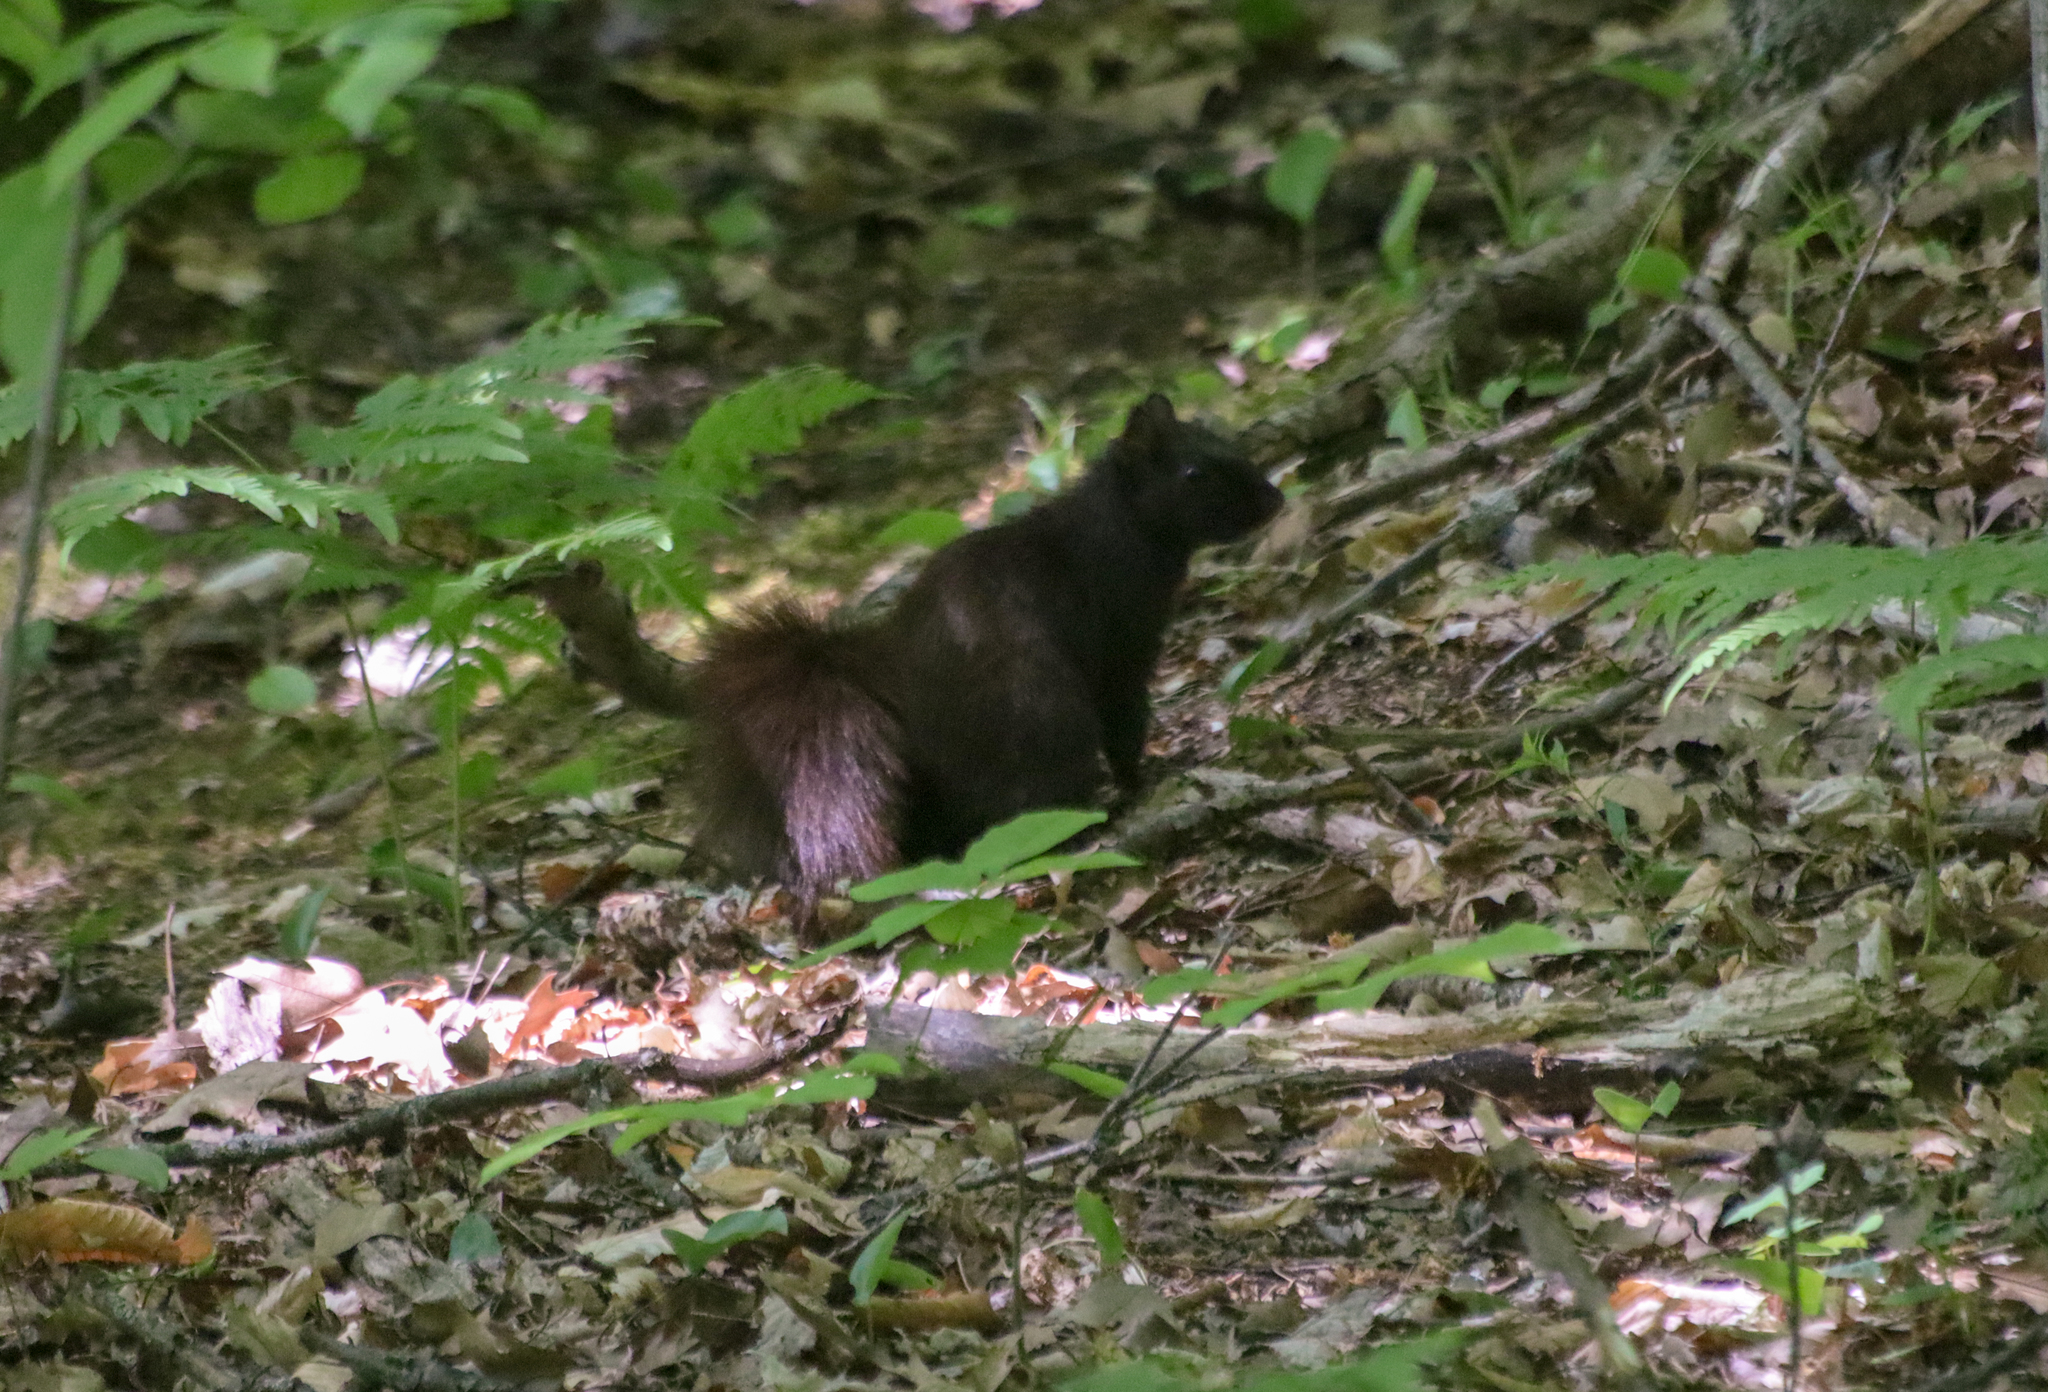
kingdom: Animalia
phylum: Chordata
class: Mammalia
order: Rodentia
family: Sciuridae
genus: Sciurus
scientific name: Sciurus carolinensis
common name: Eastern gray squirrel
